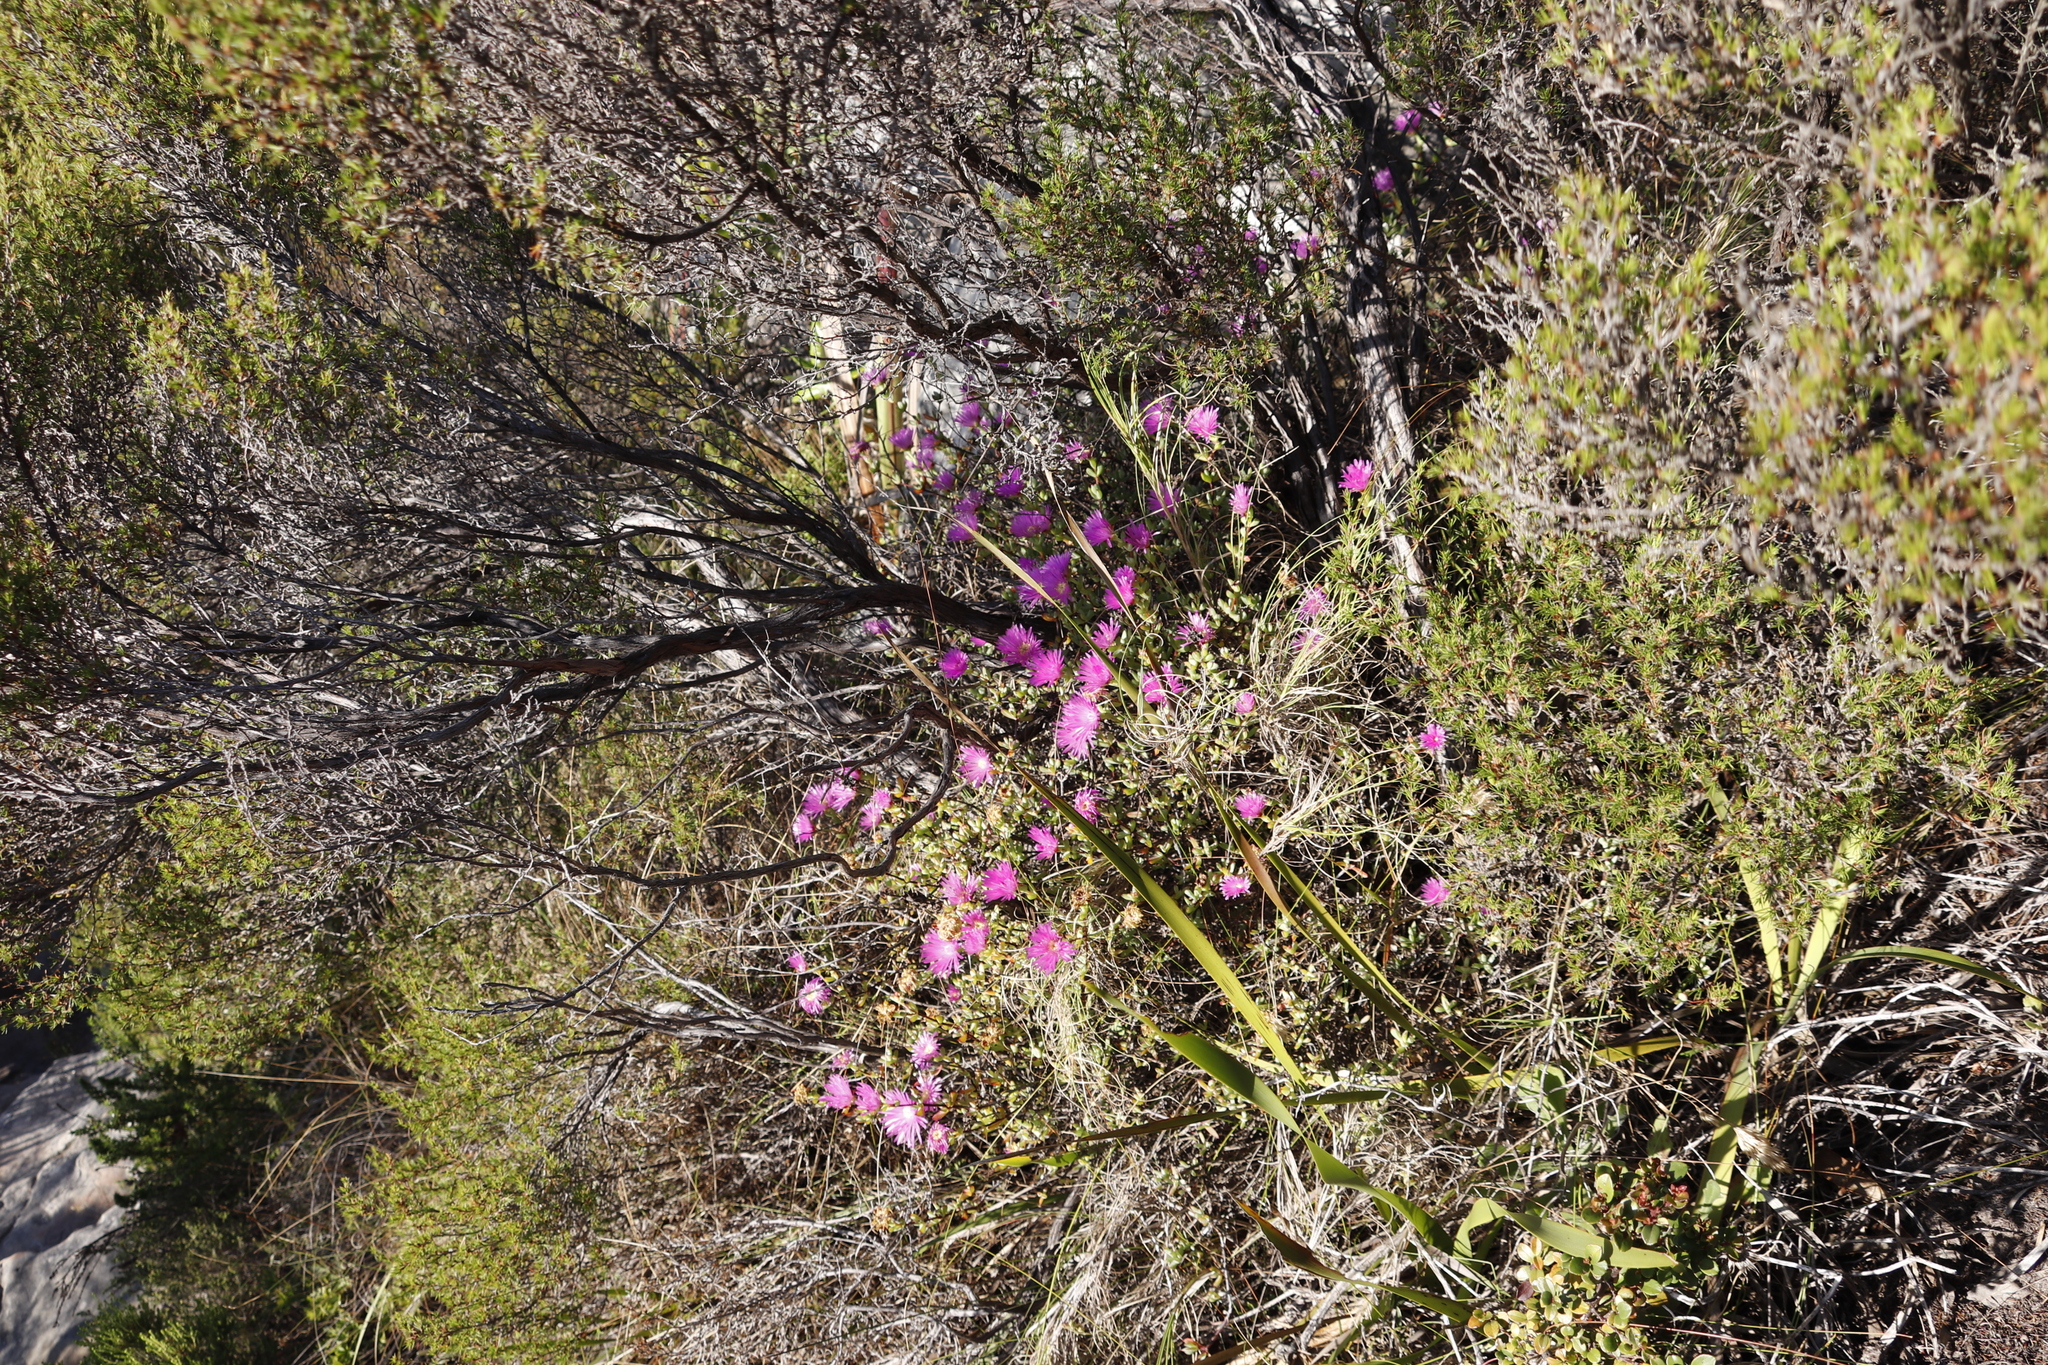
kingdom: Plantae
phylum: Tracheophyta
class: Magnoliopsida
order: Caryophyllales
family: Aizoaceae
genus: Oscularia
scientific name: Oscularia falciformis
